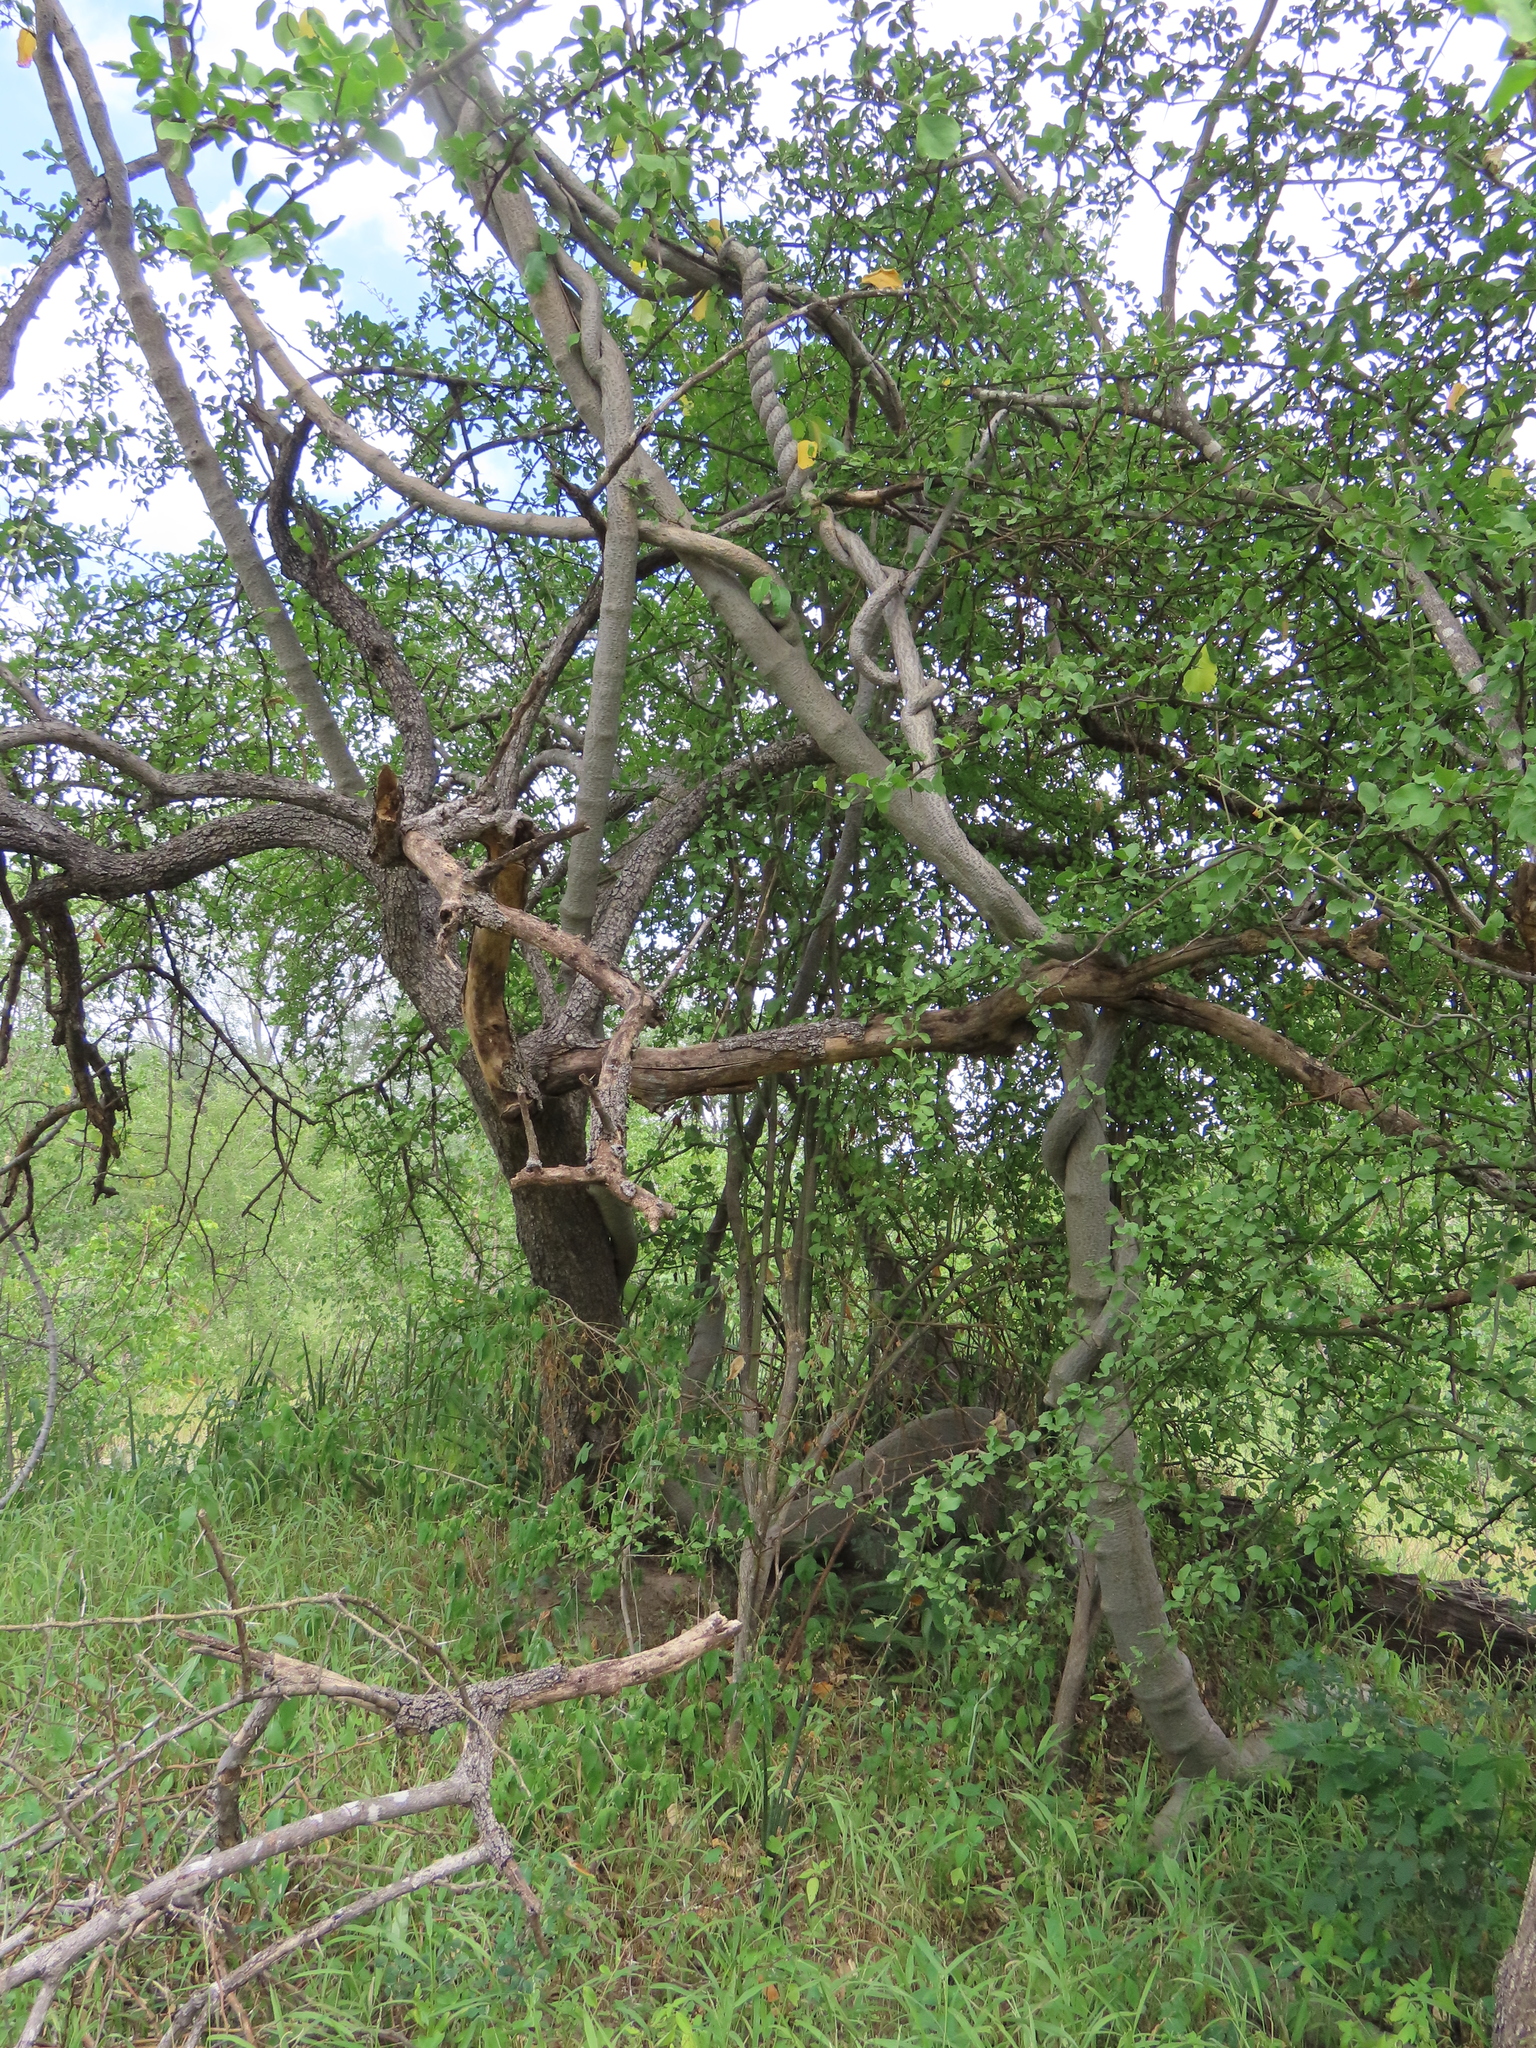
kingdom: Plantae
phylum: Tracheophyta
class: Magnoliopsida
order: Gentianales
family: Apocynaceae
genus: Fockea
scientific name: Fockea multiflora
